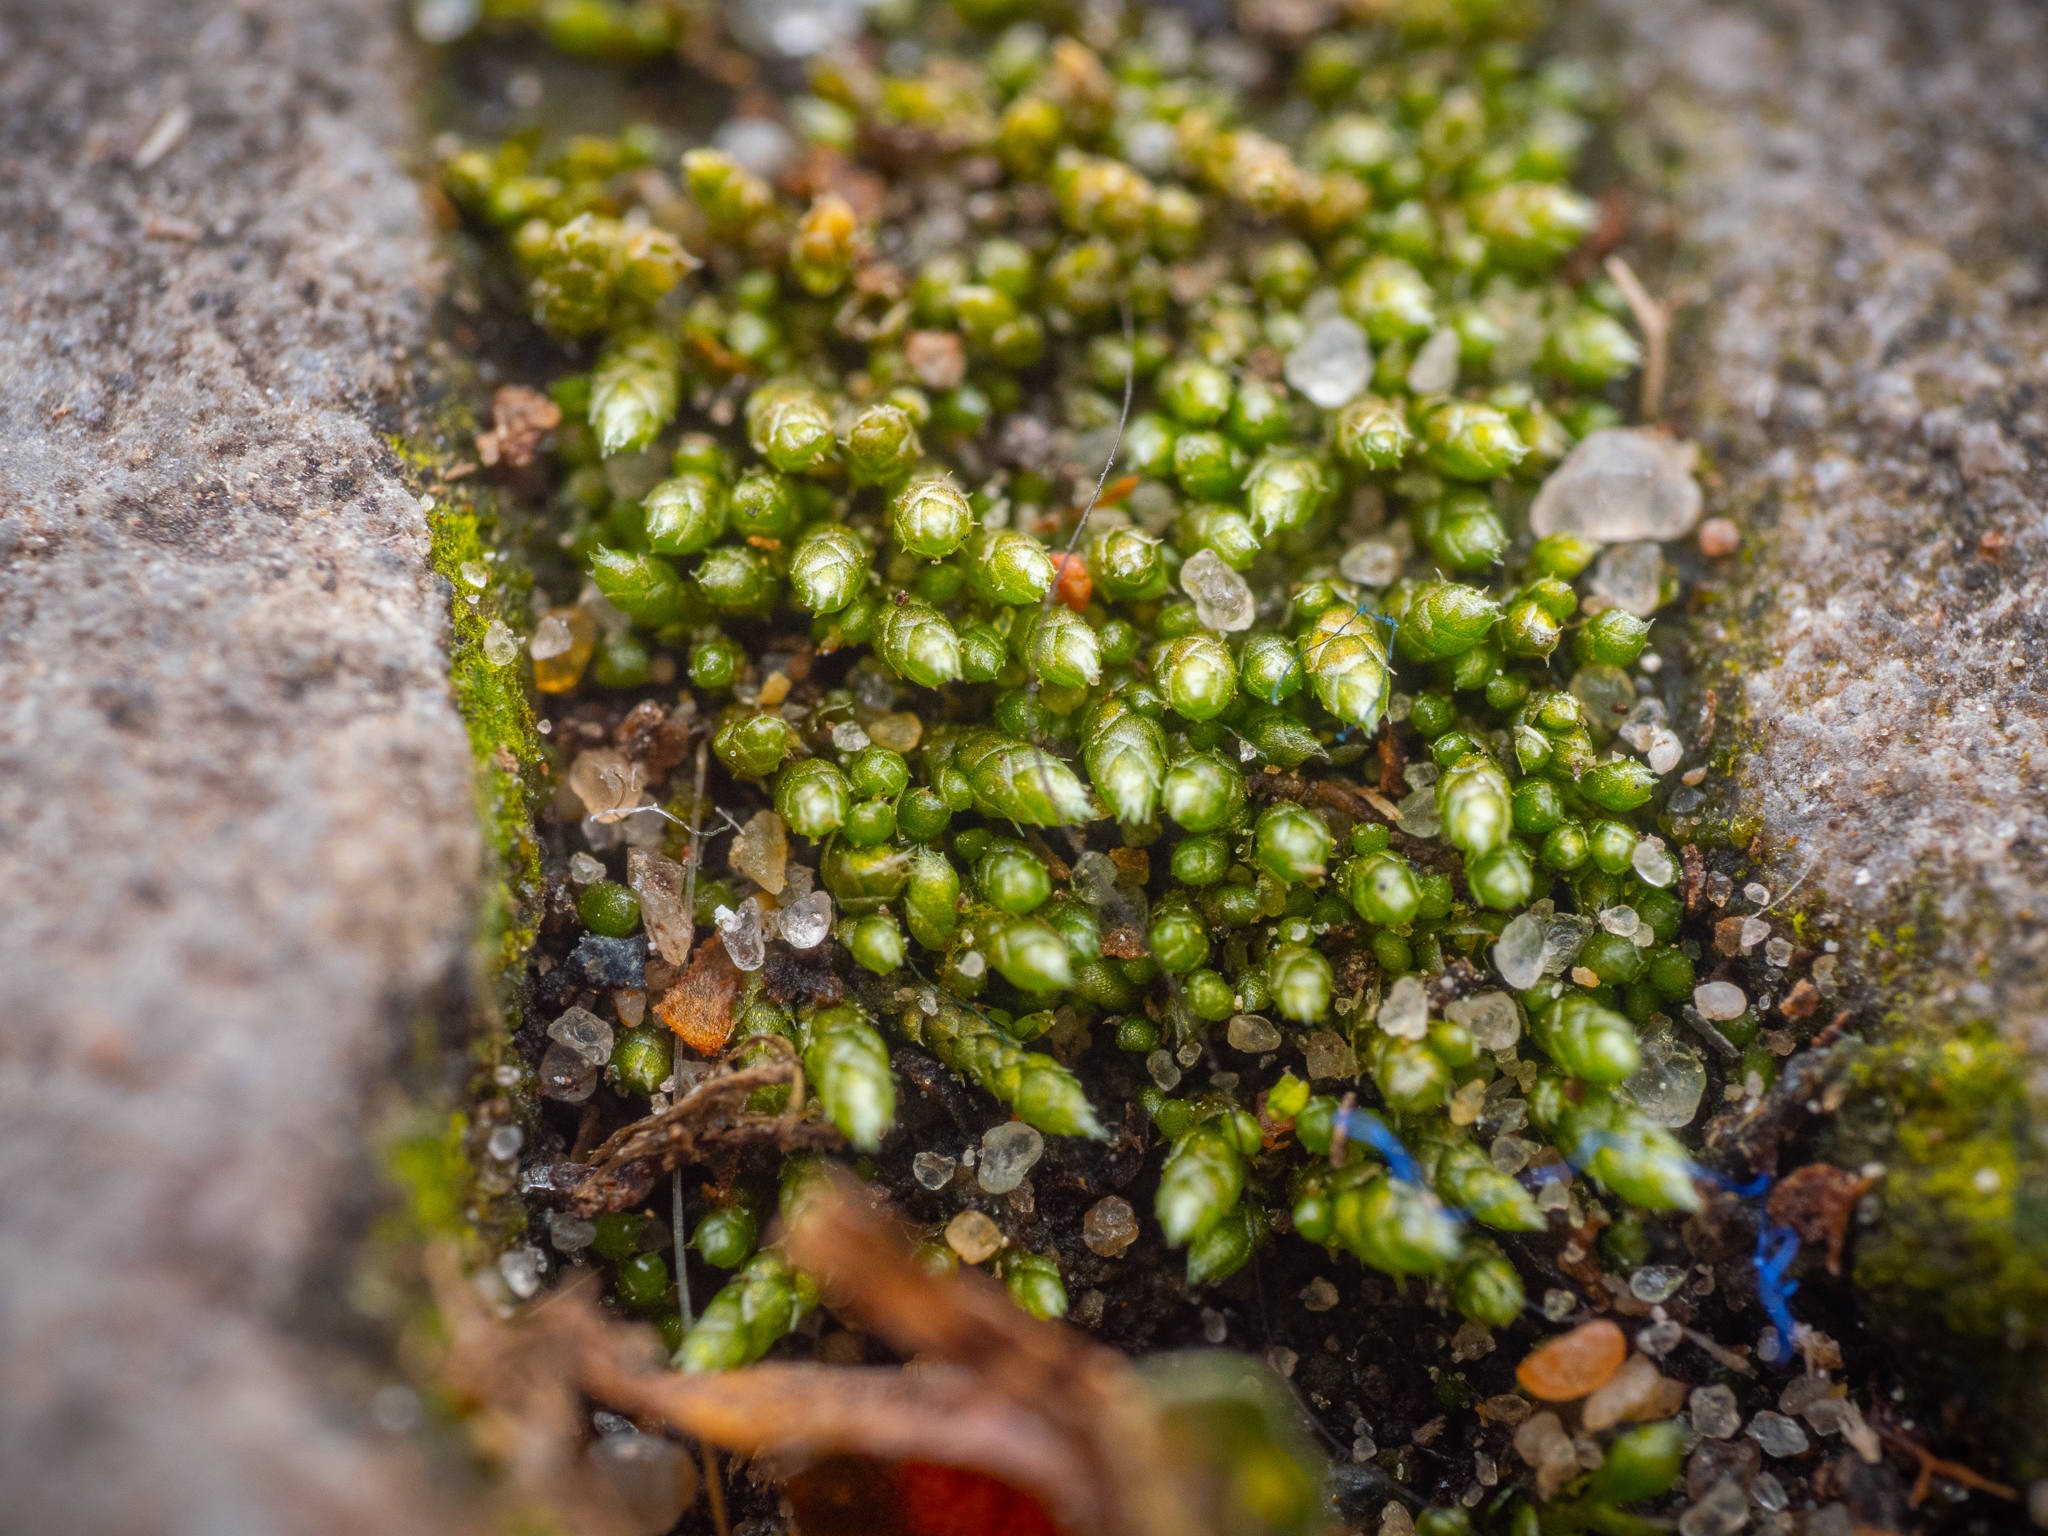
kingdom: Plantae
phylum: Bryophyta
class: Bryopsida
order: Bryales
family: Bryaceae
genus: Bryum
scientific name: Bryum argenteum
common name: Silver-moss
